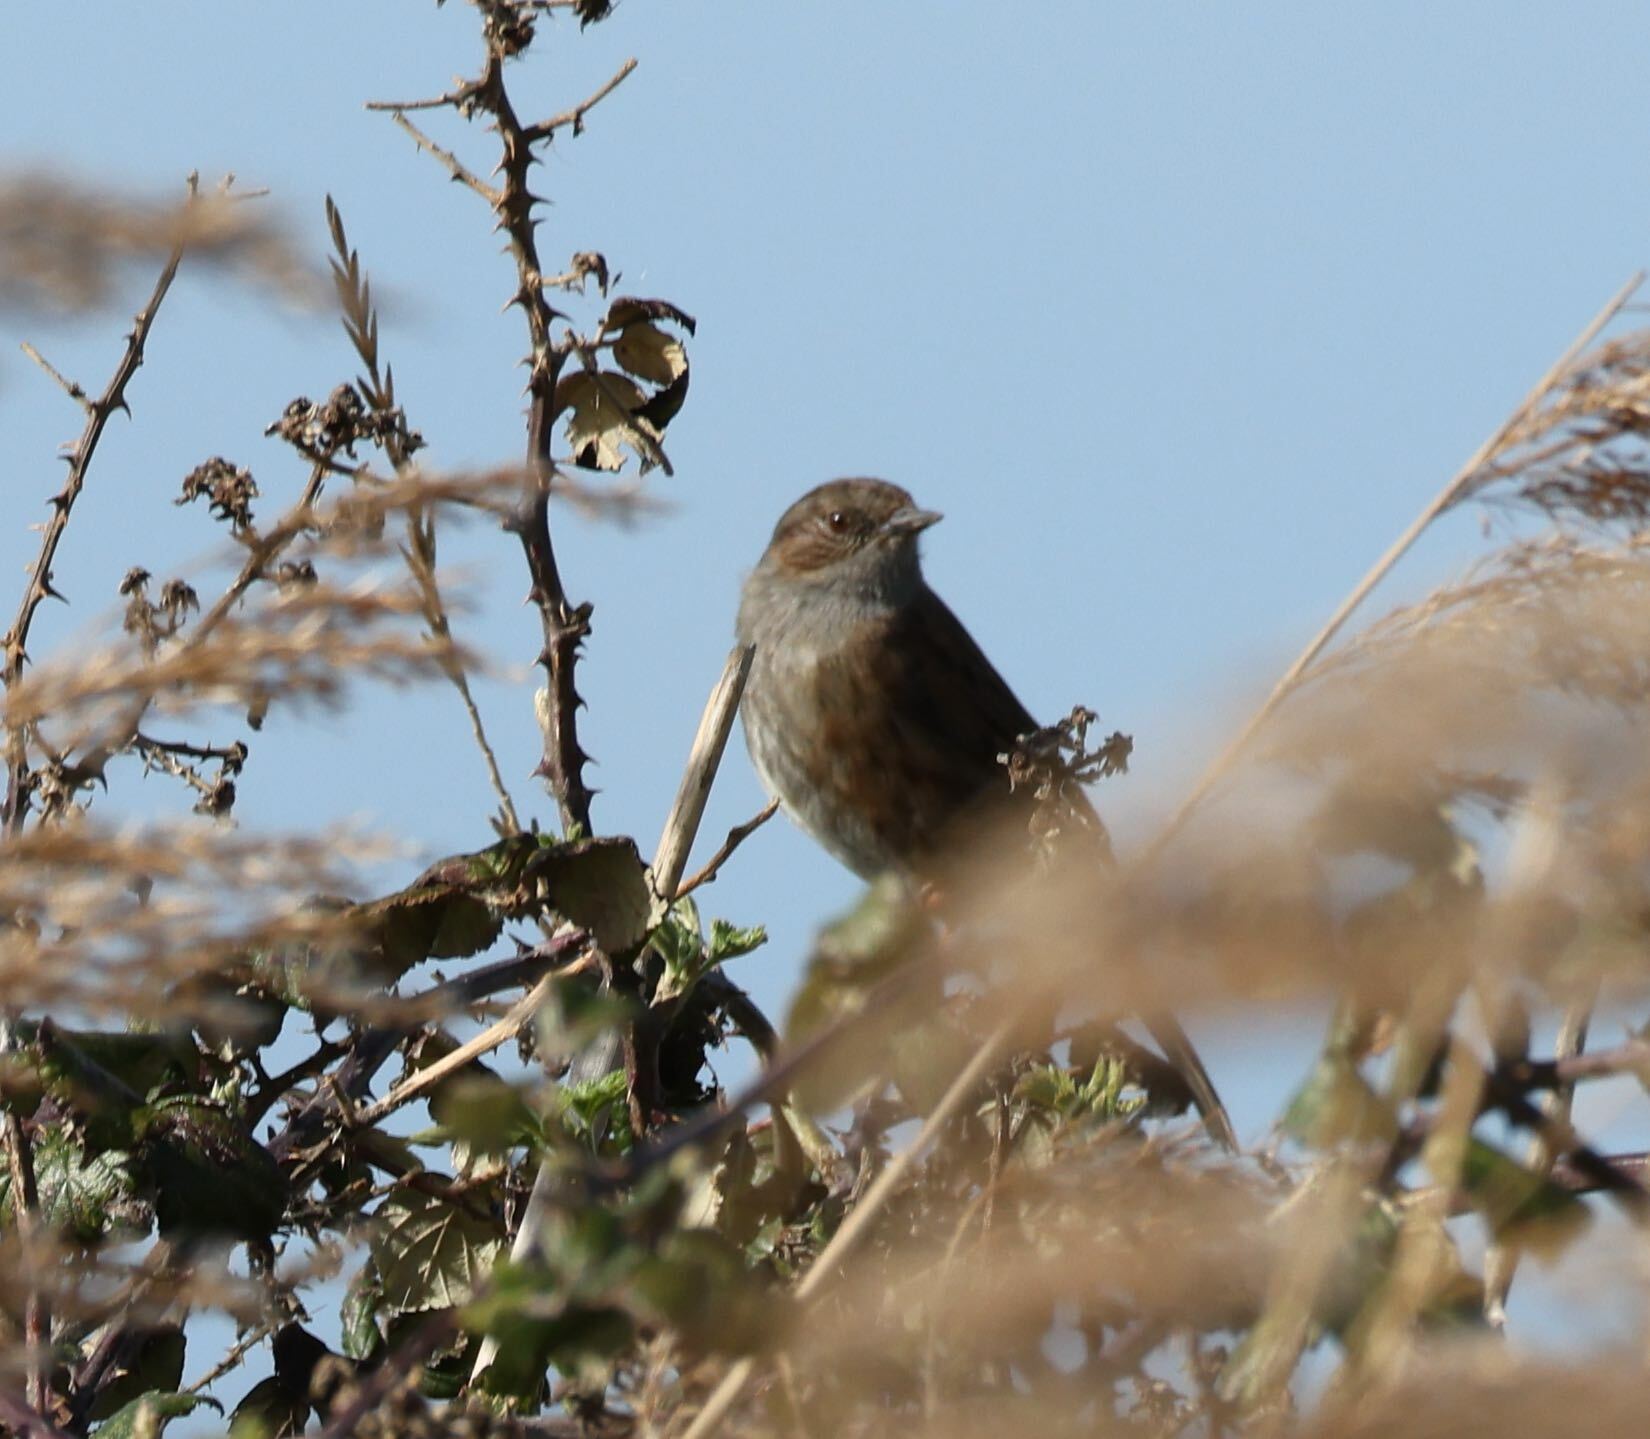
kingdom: Animalia
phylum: Chordata
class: Aves
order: Passeriformes
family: Prunellidae
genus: Prunella
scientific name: Prunella modularis
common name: Dunnock
